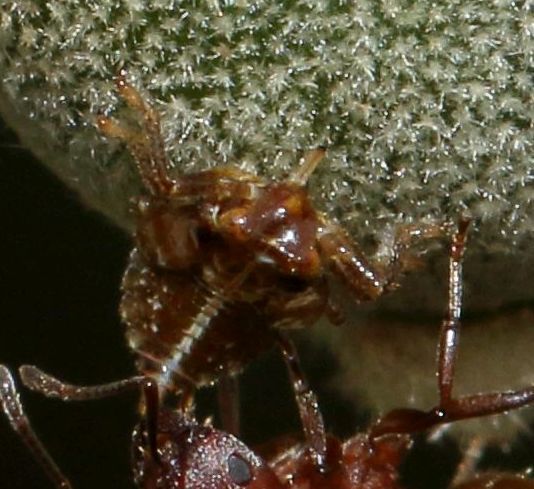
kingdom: Animalia
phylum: Arthropoda
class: Insecta
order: Hemiptera
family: Tettigometridae
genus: Nototettigometra
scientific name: Nototettigometra patruelis
